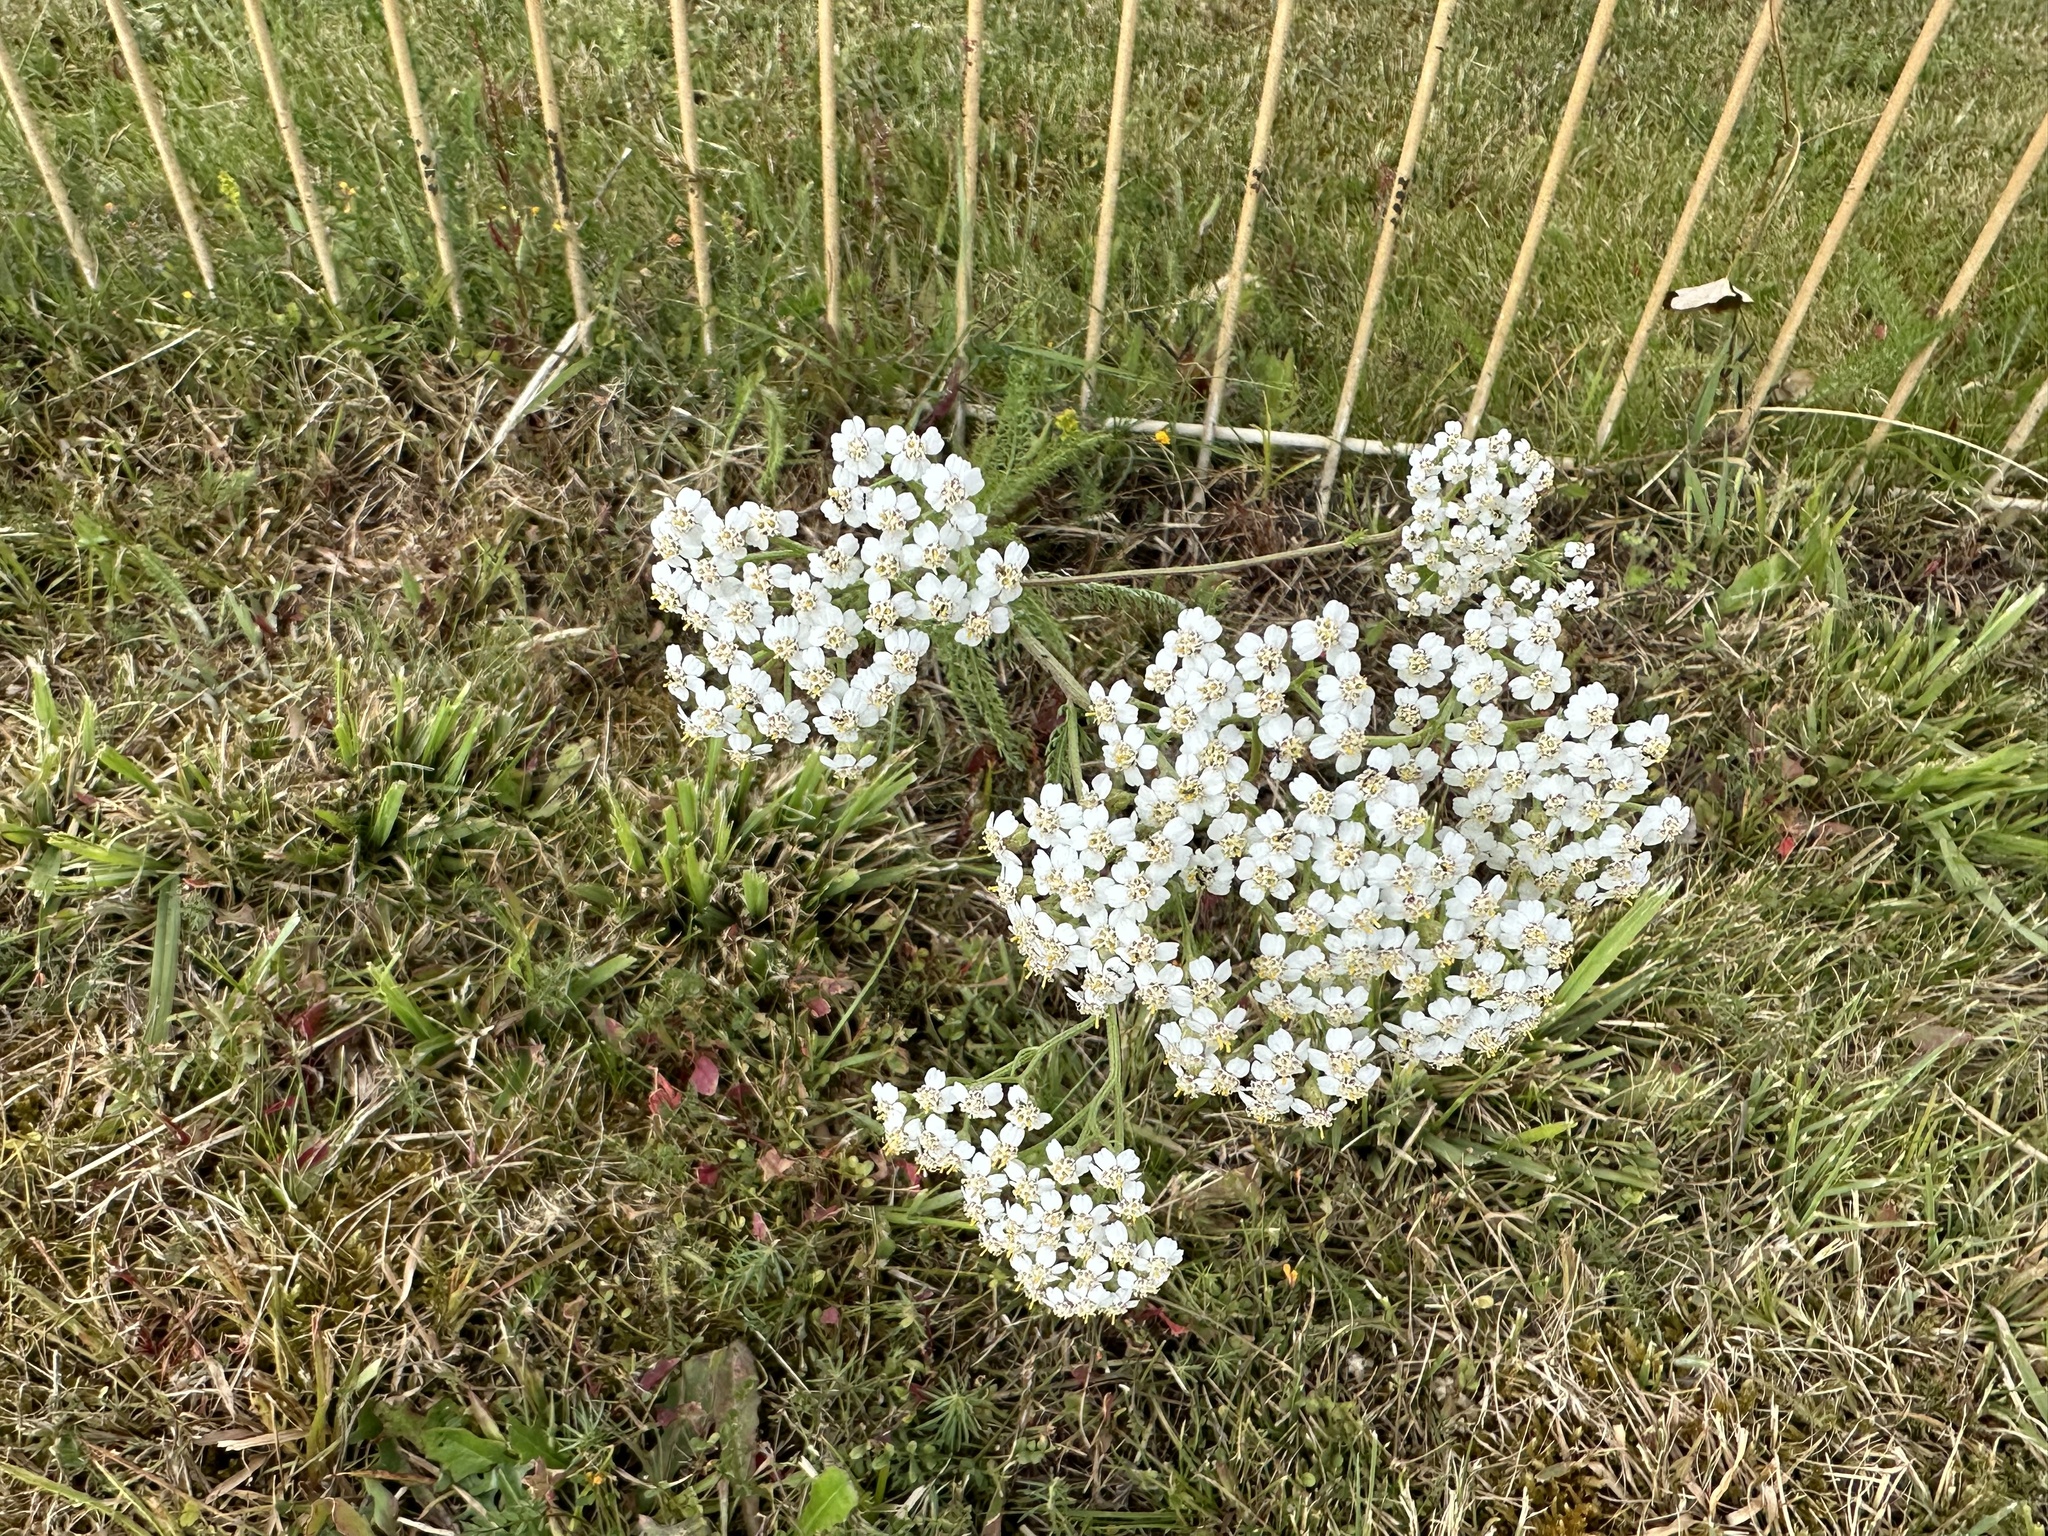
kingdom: Plantae
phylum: Tracheophyta
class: Magnoliopsida
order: Asterales
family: Asteraceae
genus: Achillea
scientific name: Achillea millefolium
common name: Yarrow
